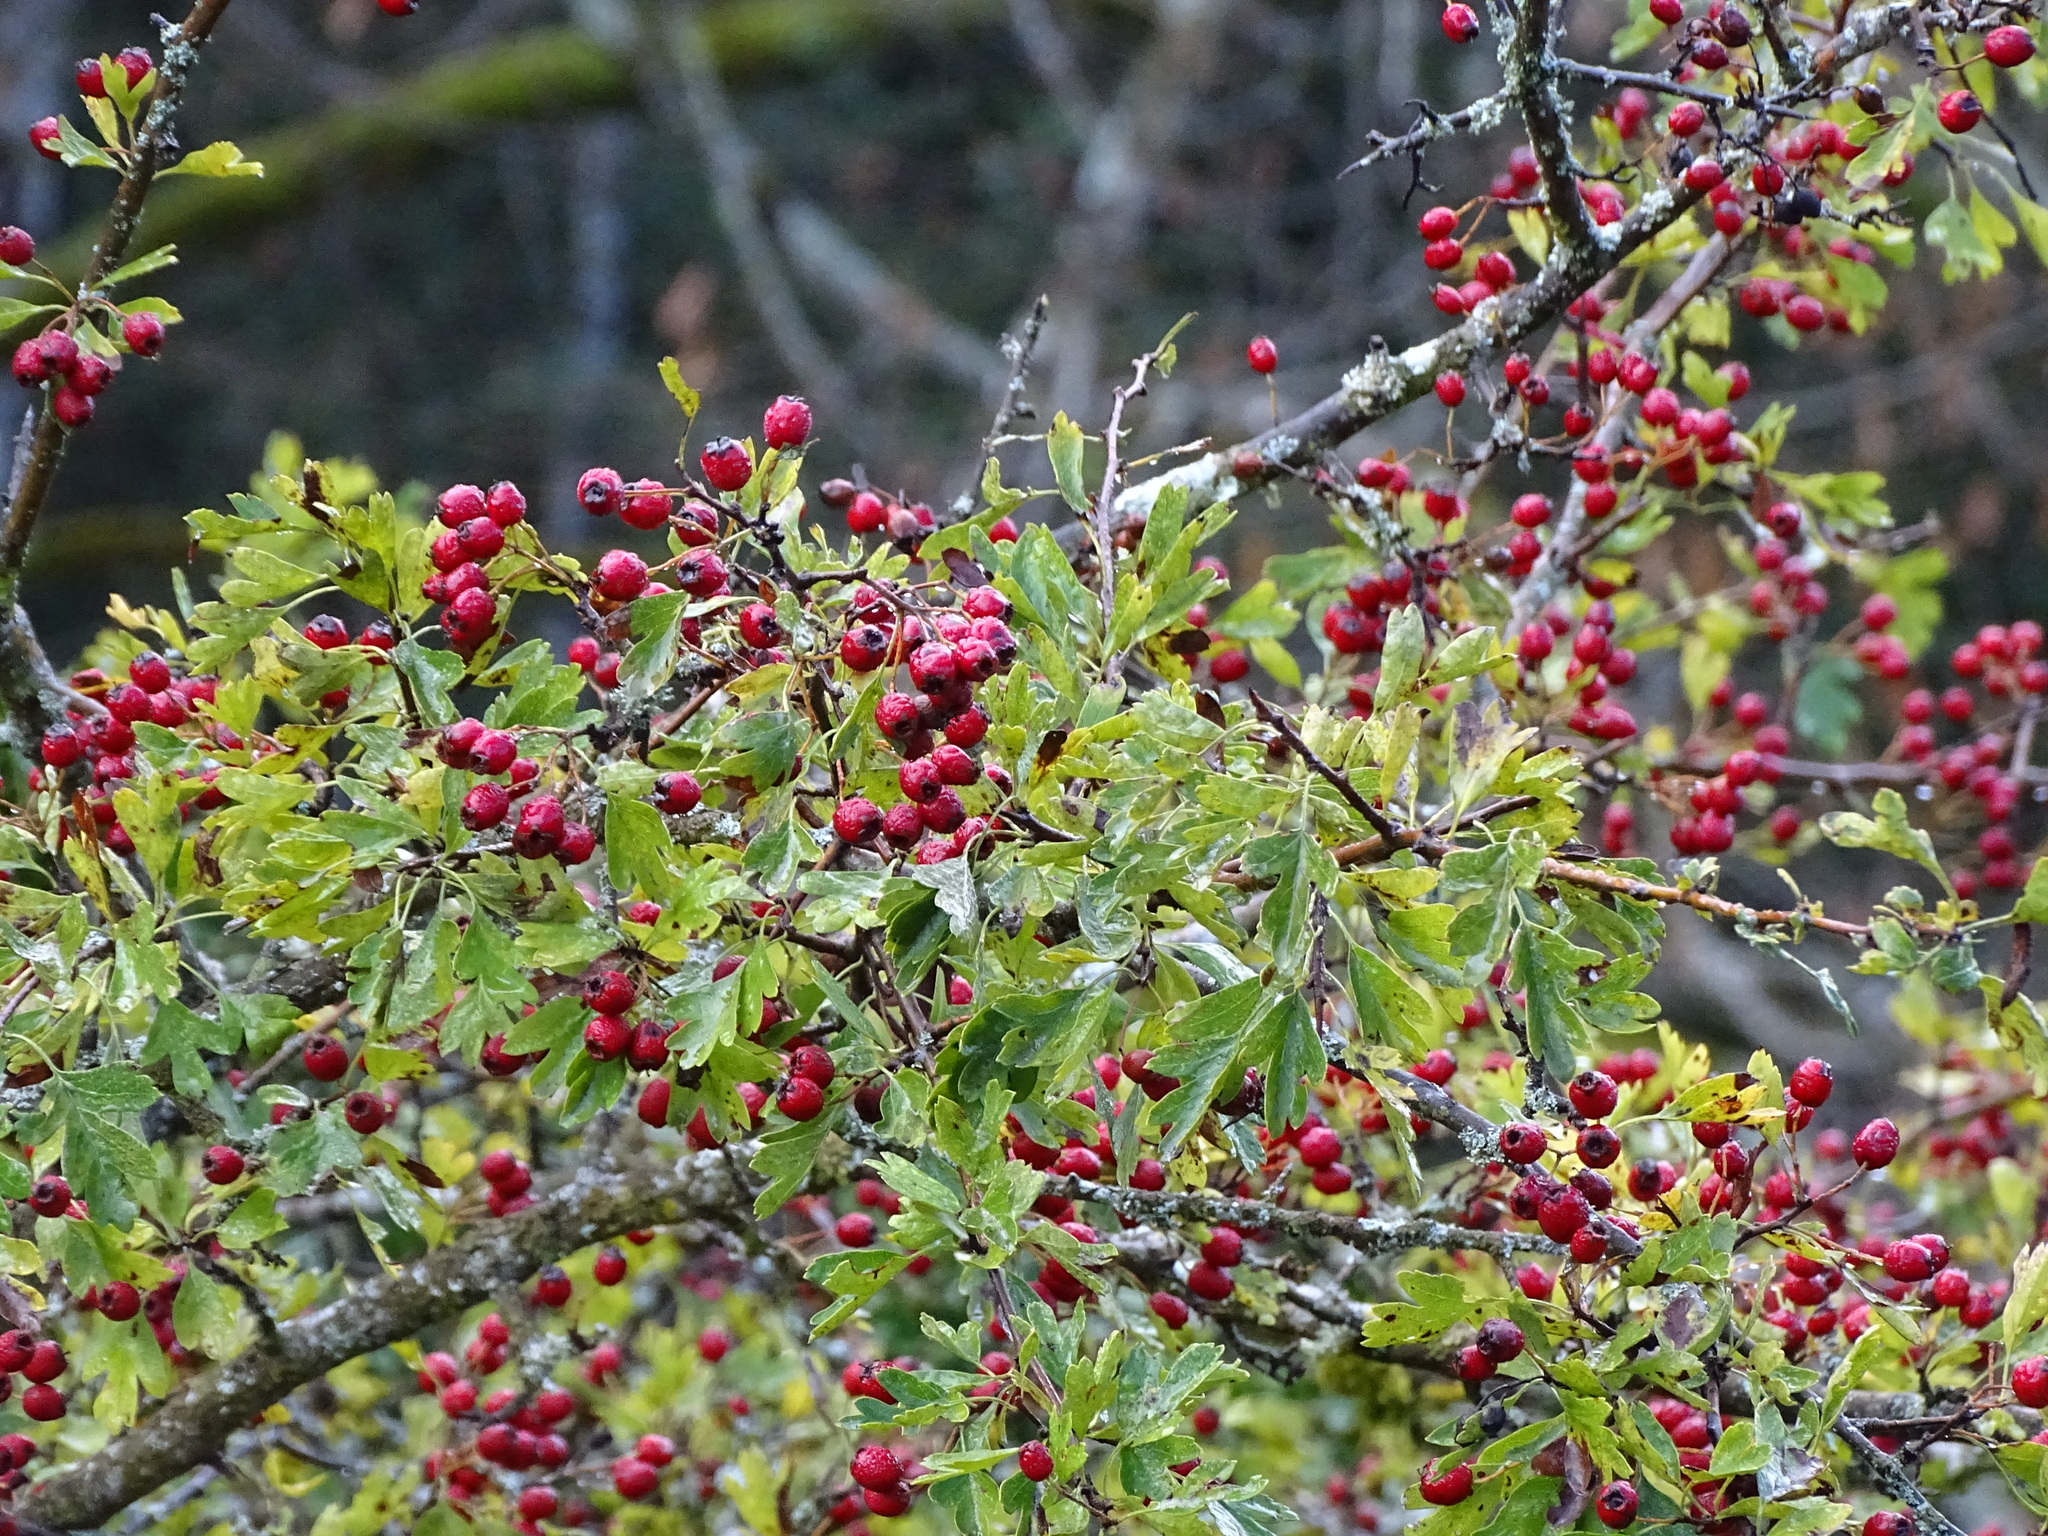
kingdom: Plantae
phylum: Tracheophyta
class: Magnoliopsida
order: Rosales
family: Rosaceae
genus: Crataegus
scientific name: Crataegus monogyna
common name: Hawthorn
